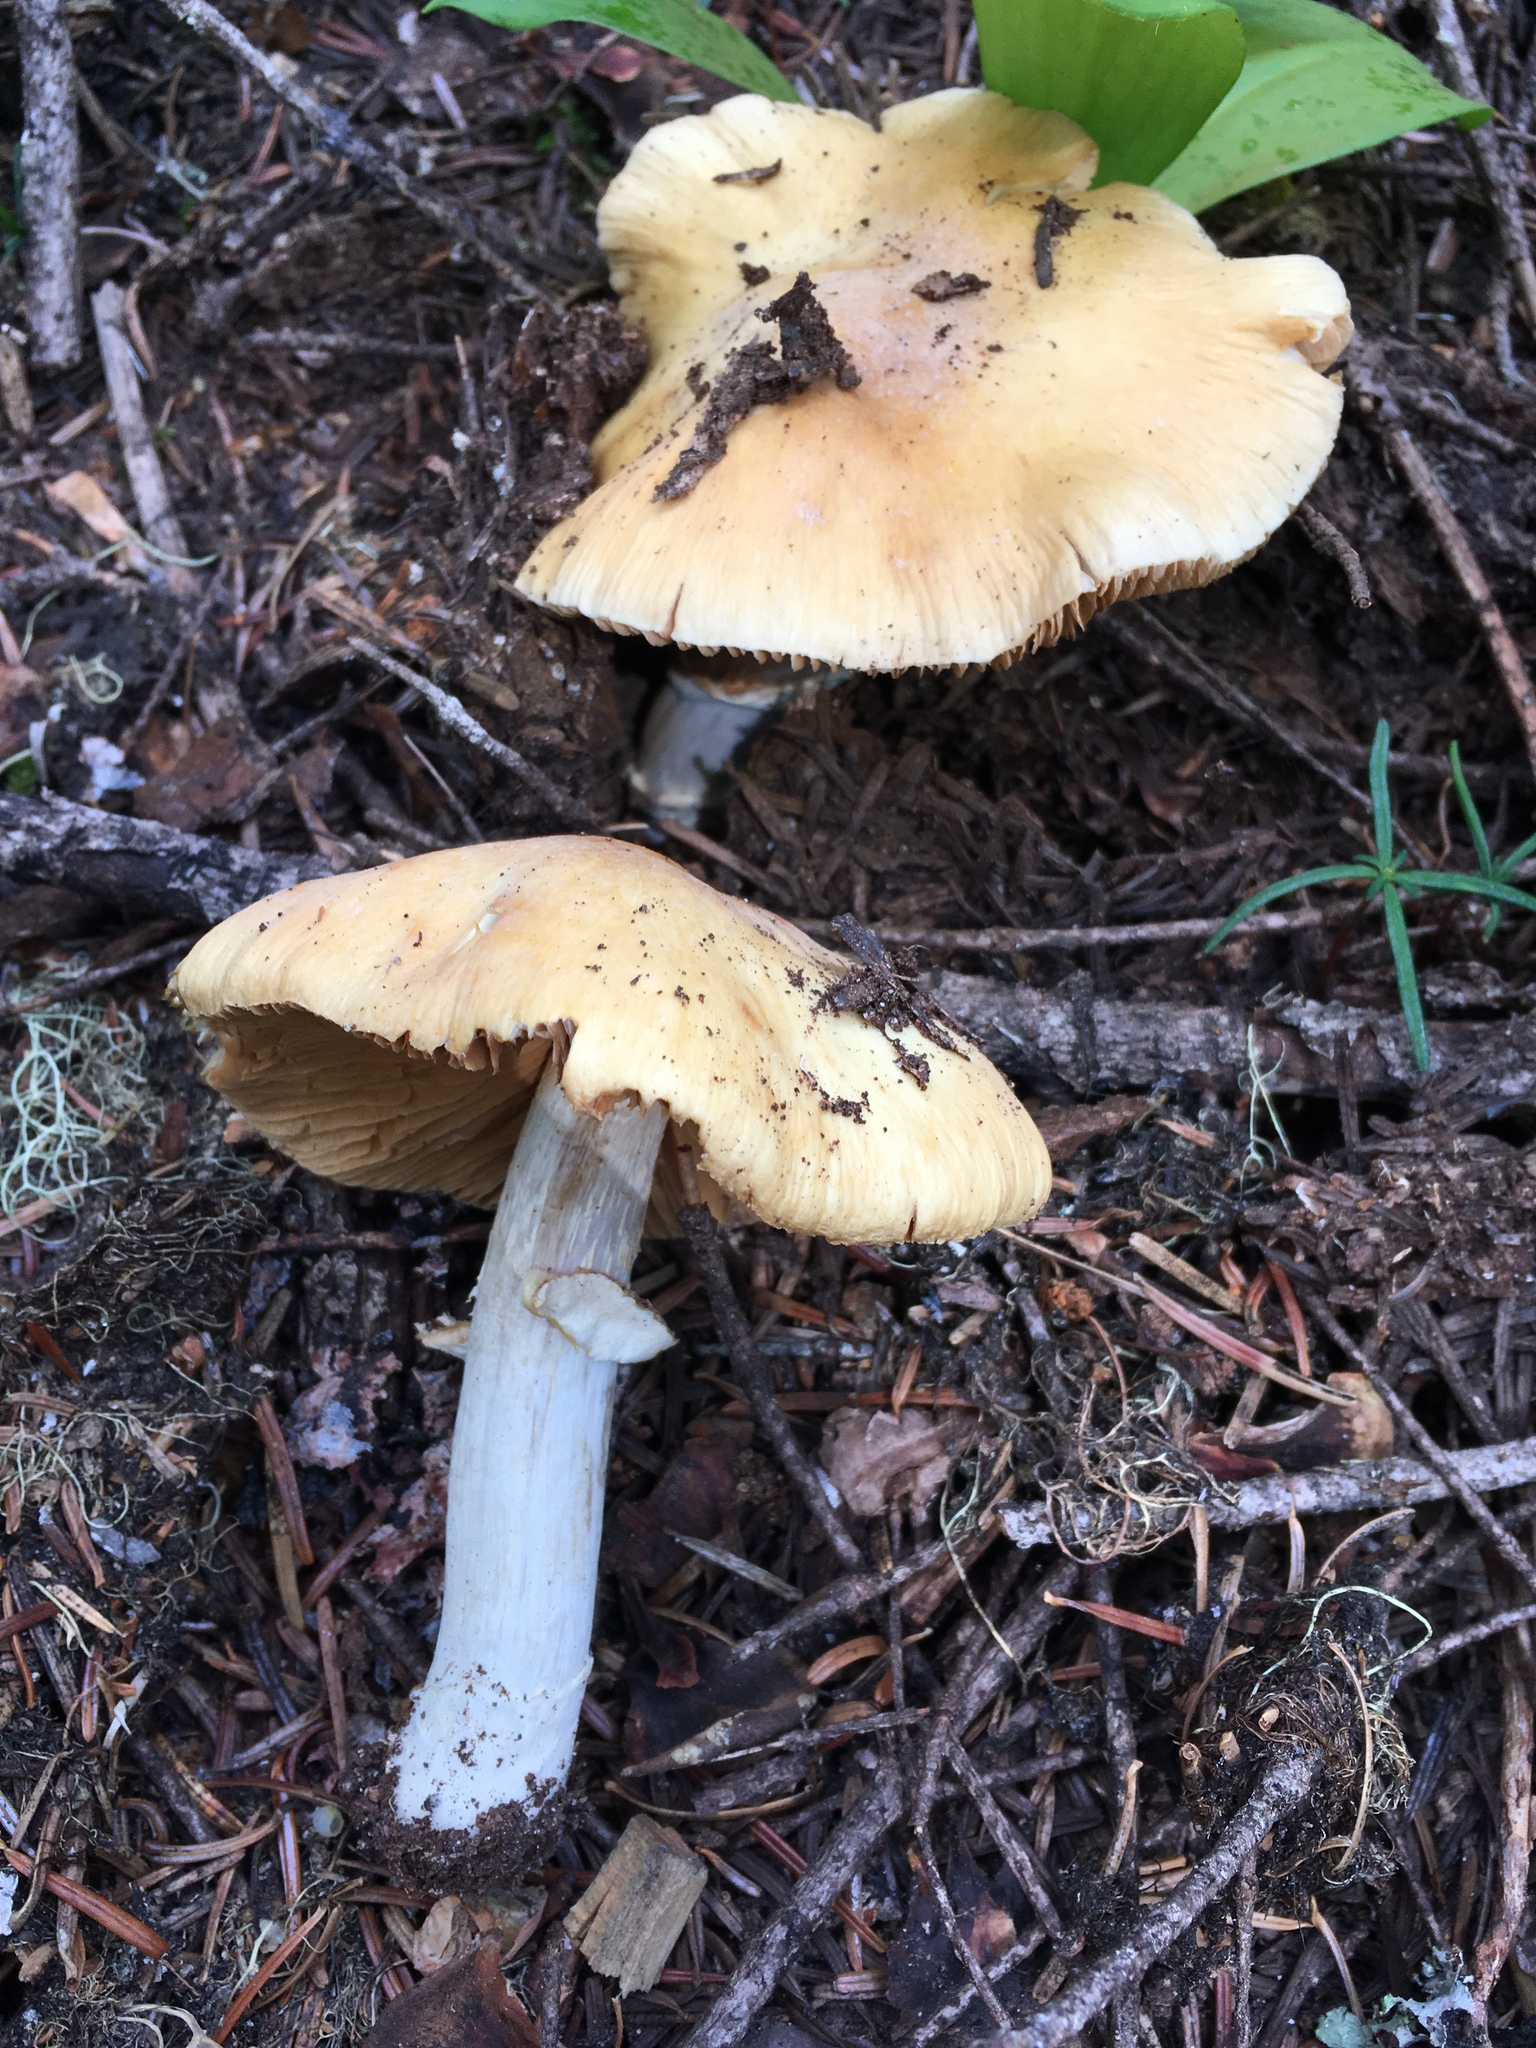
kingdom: Fungi
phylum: Basidiomycota
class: Agaricomycetes
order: Agaricales
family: Cortinariaceae
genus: Cortinarius
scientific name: Cortinarius caperatus
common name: The gypsy
